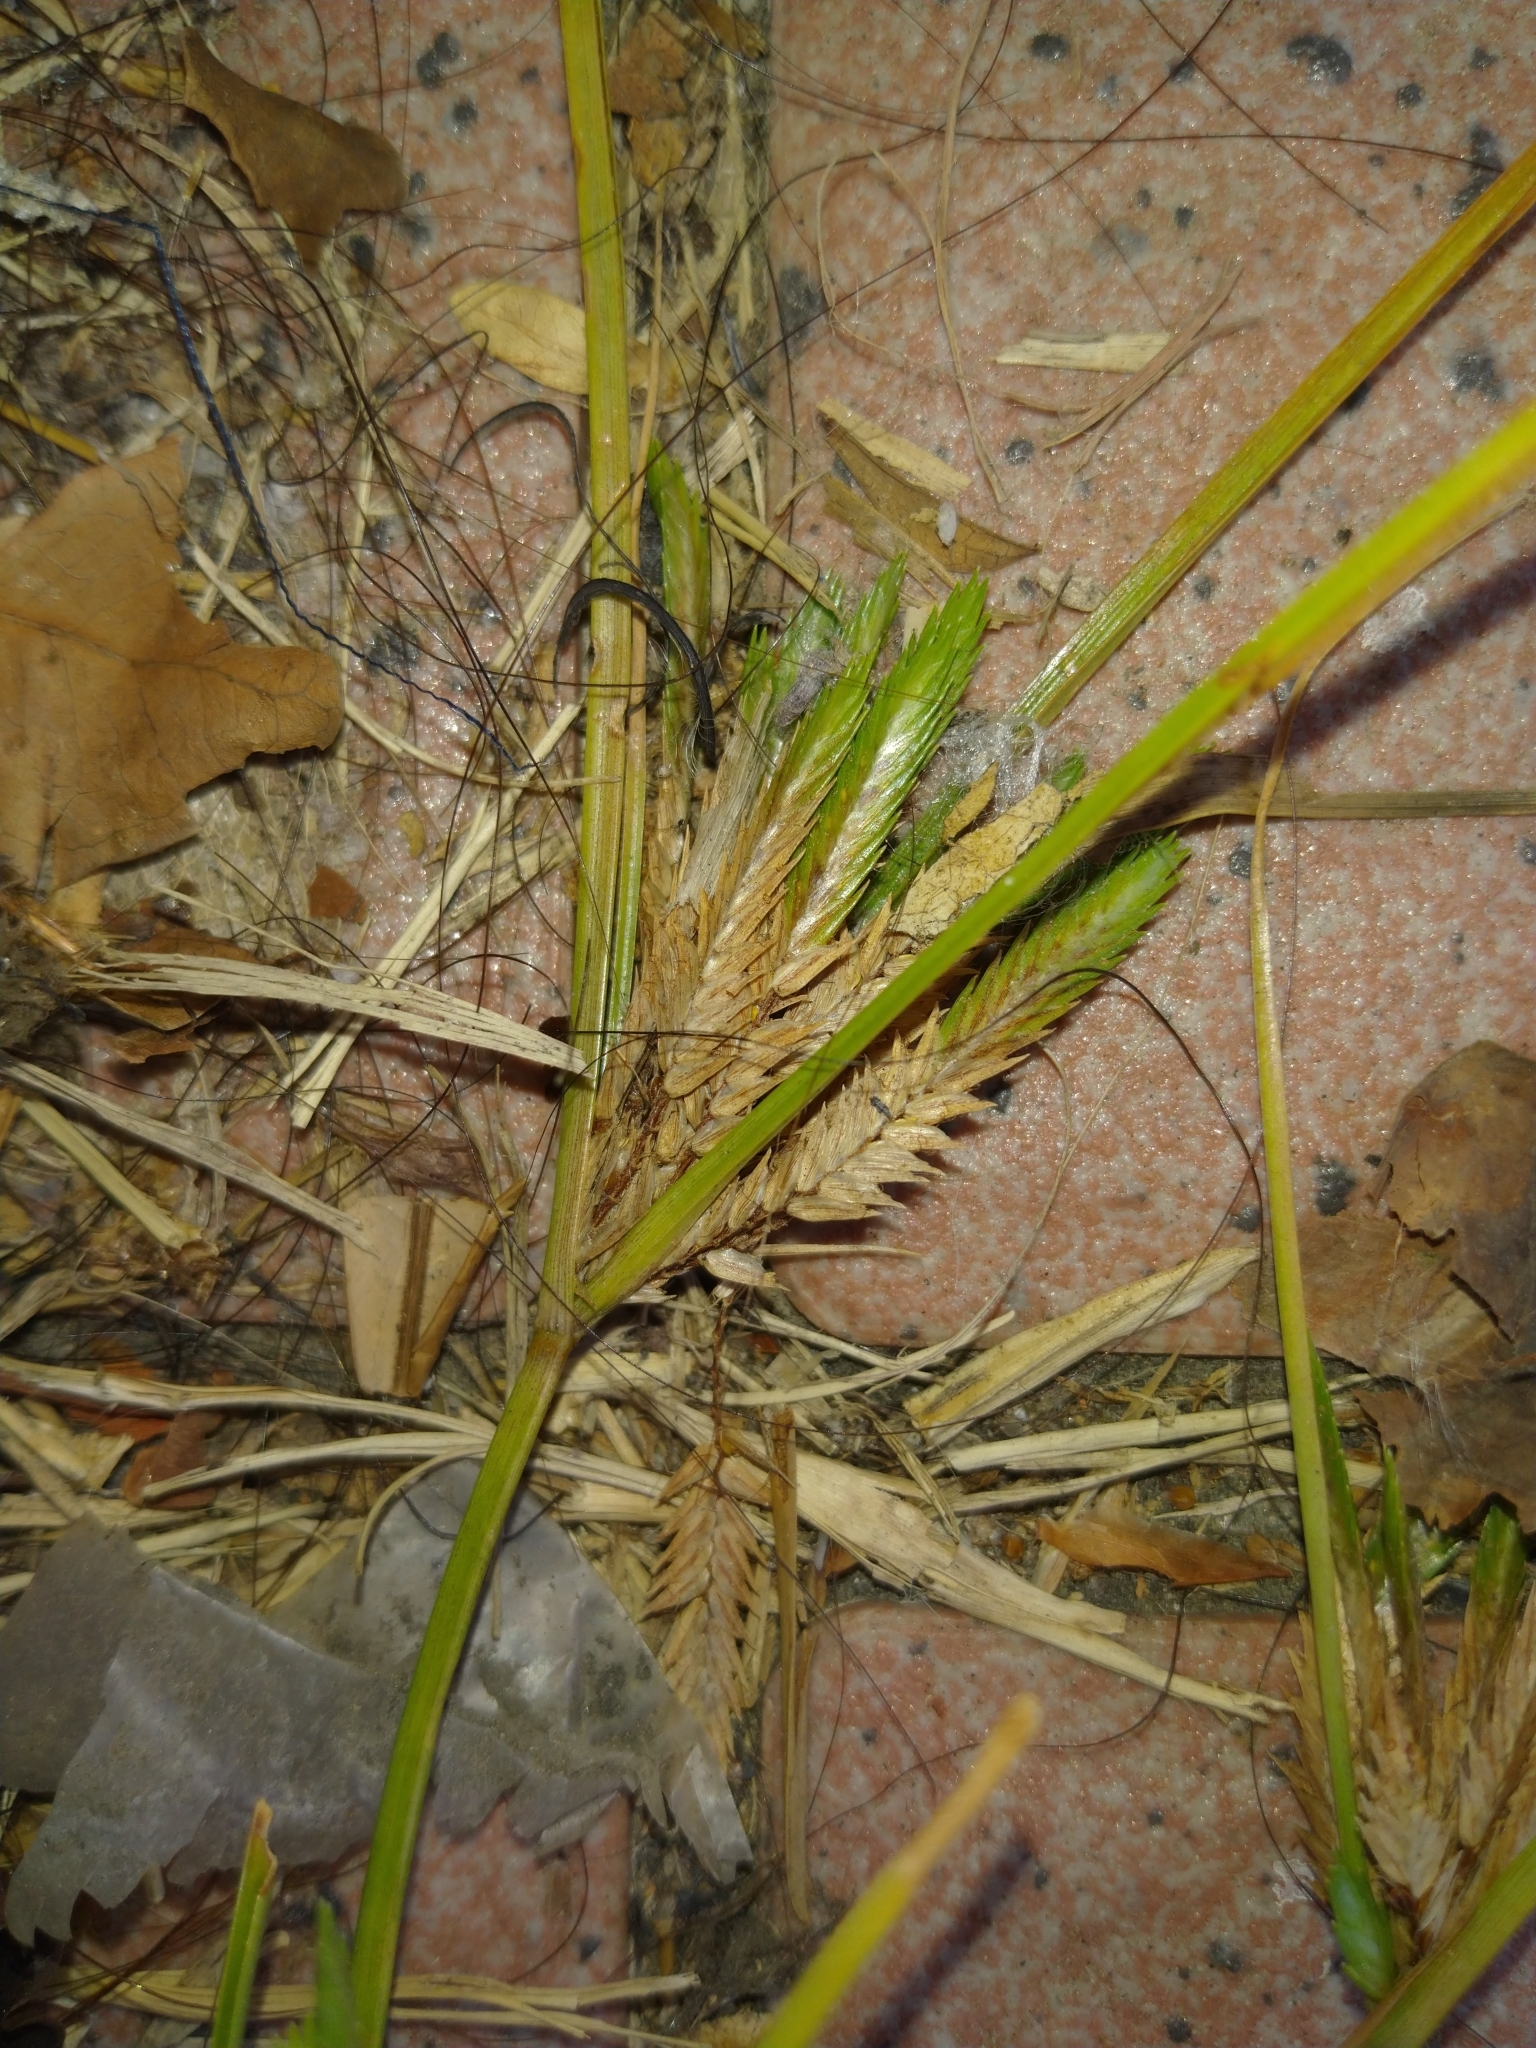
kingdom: Plantae
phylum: Tracheophyta
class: Liliopsida
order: Poales
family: Cyperaceae
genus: Cyperus
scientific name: Cyperus compressus
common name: Poorland flatsedge
